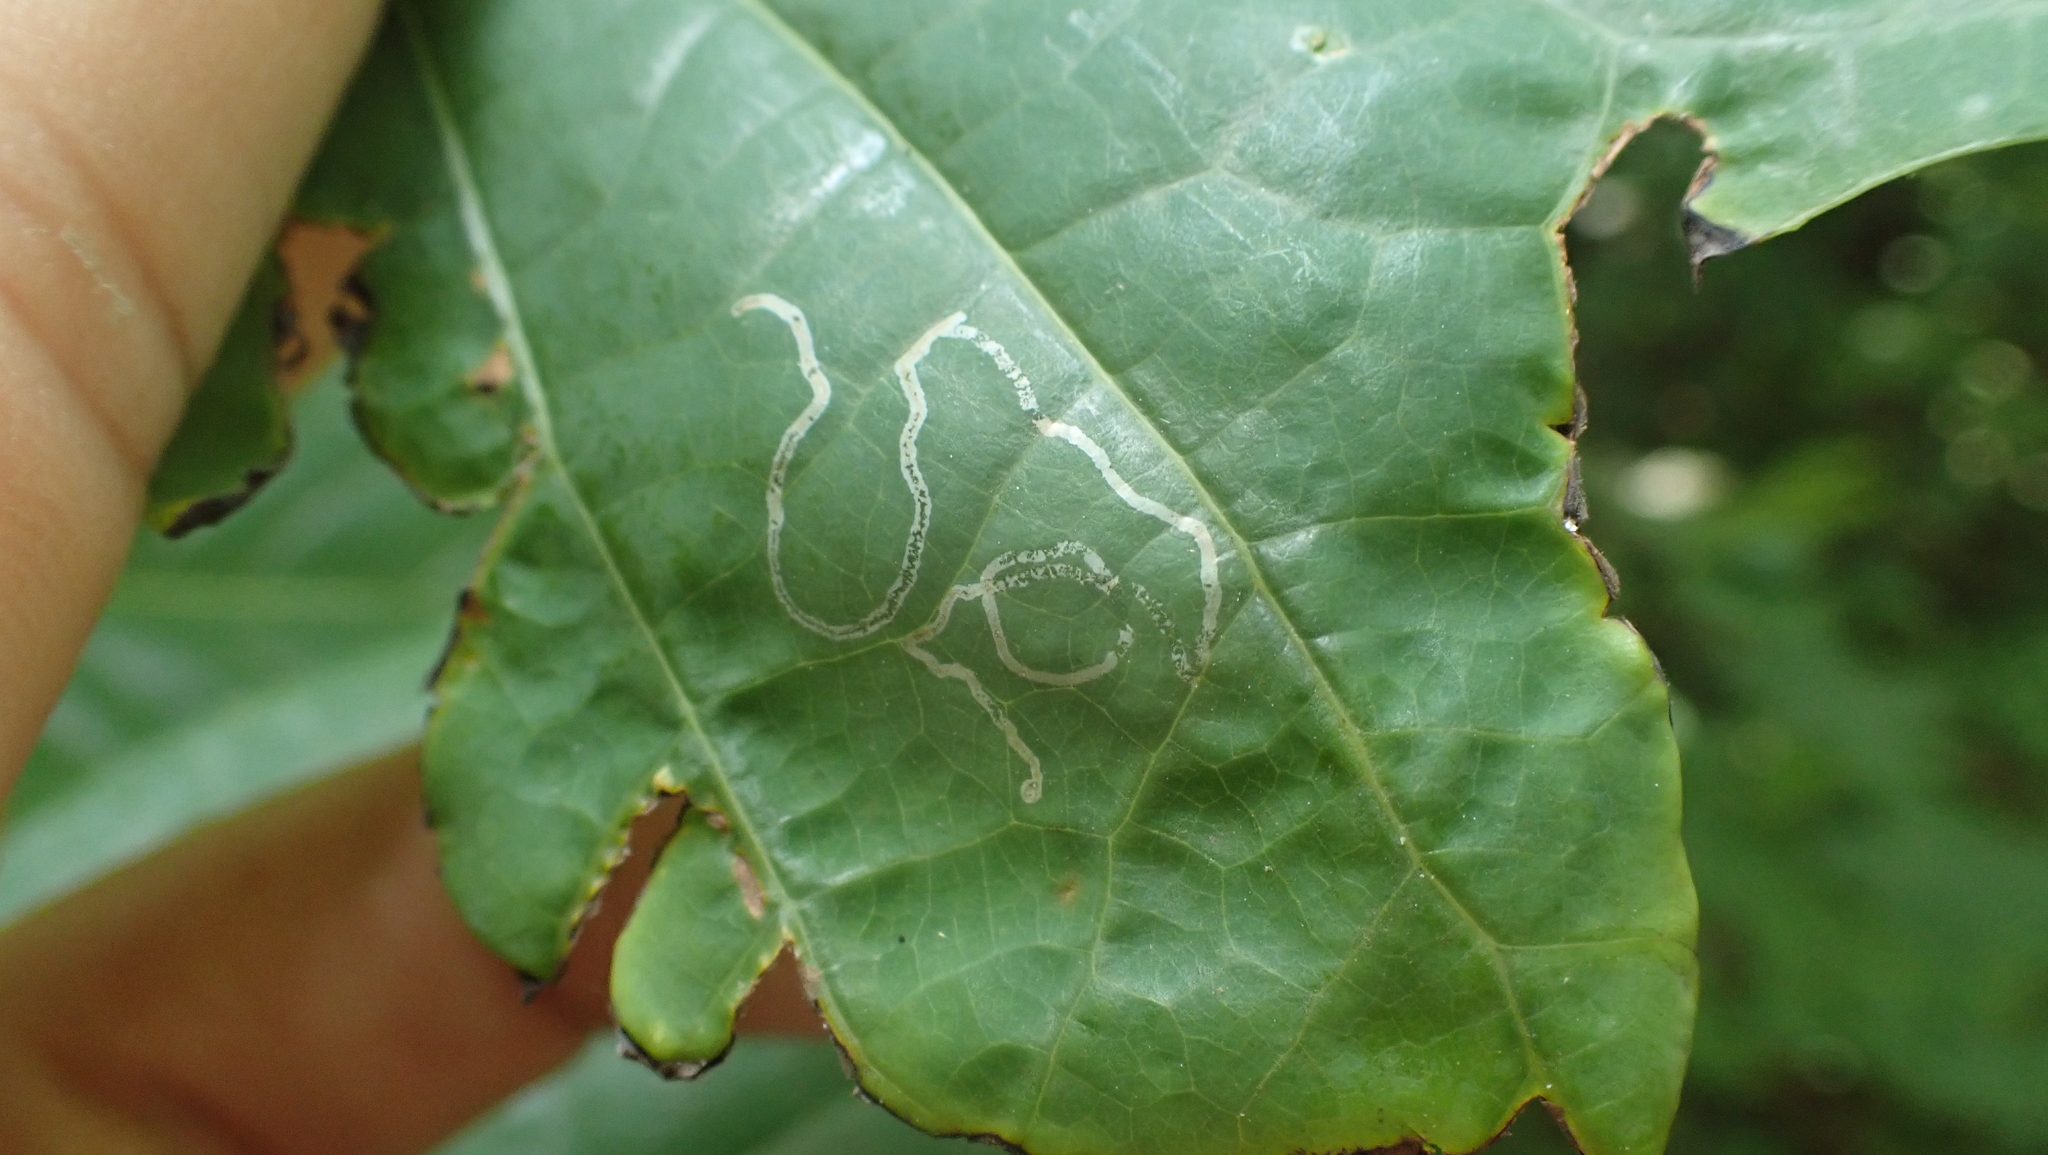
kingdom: Animalia
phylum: Arthropoda
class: Insecta
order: Lepidoptera
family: Gracillariidae
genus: Phyllocnistis
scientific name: Phyllocnistis liriodendronella
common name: Tulip tree leaf miner
